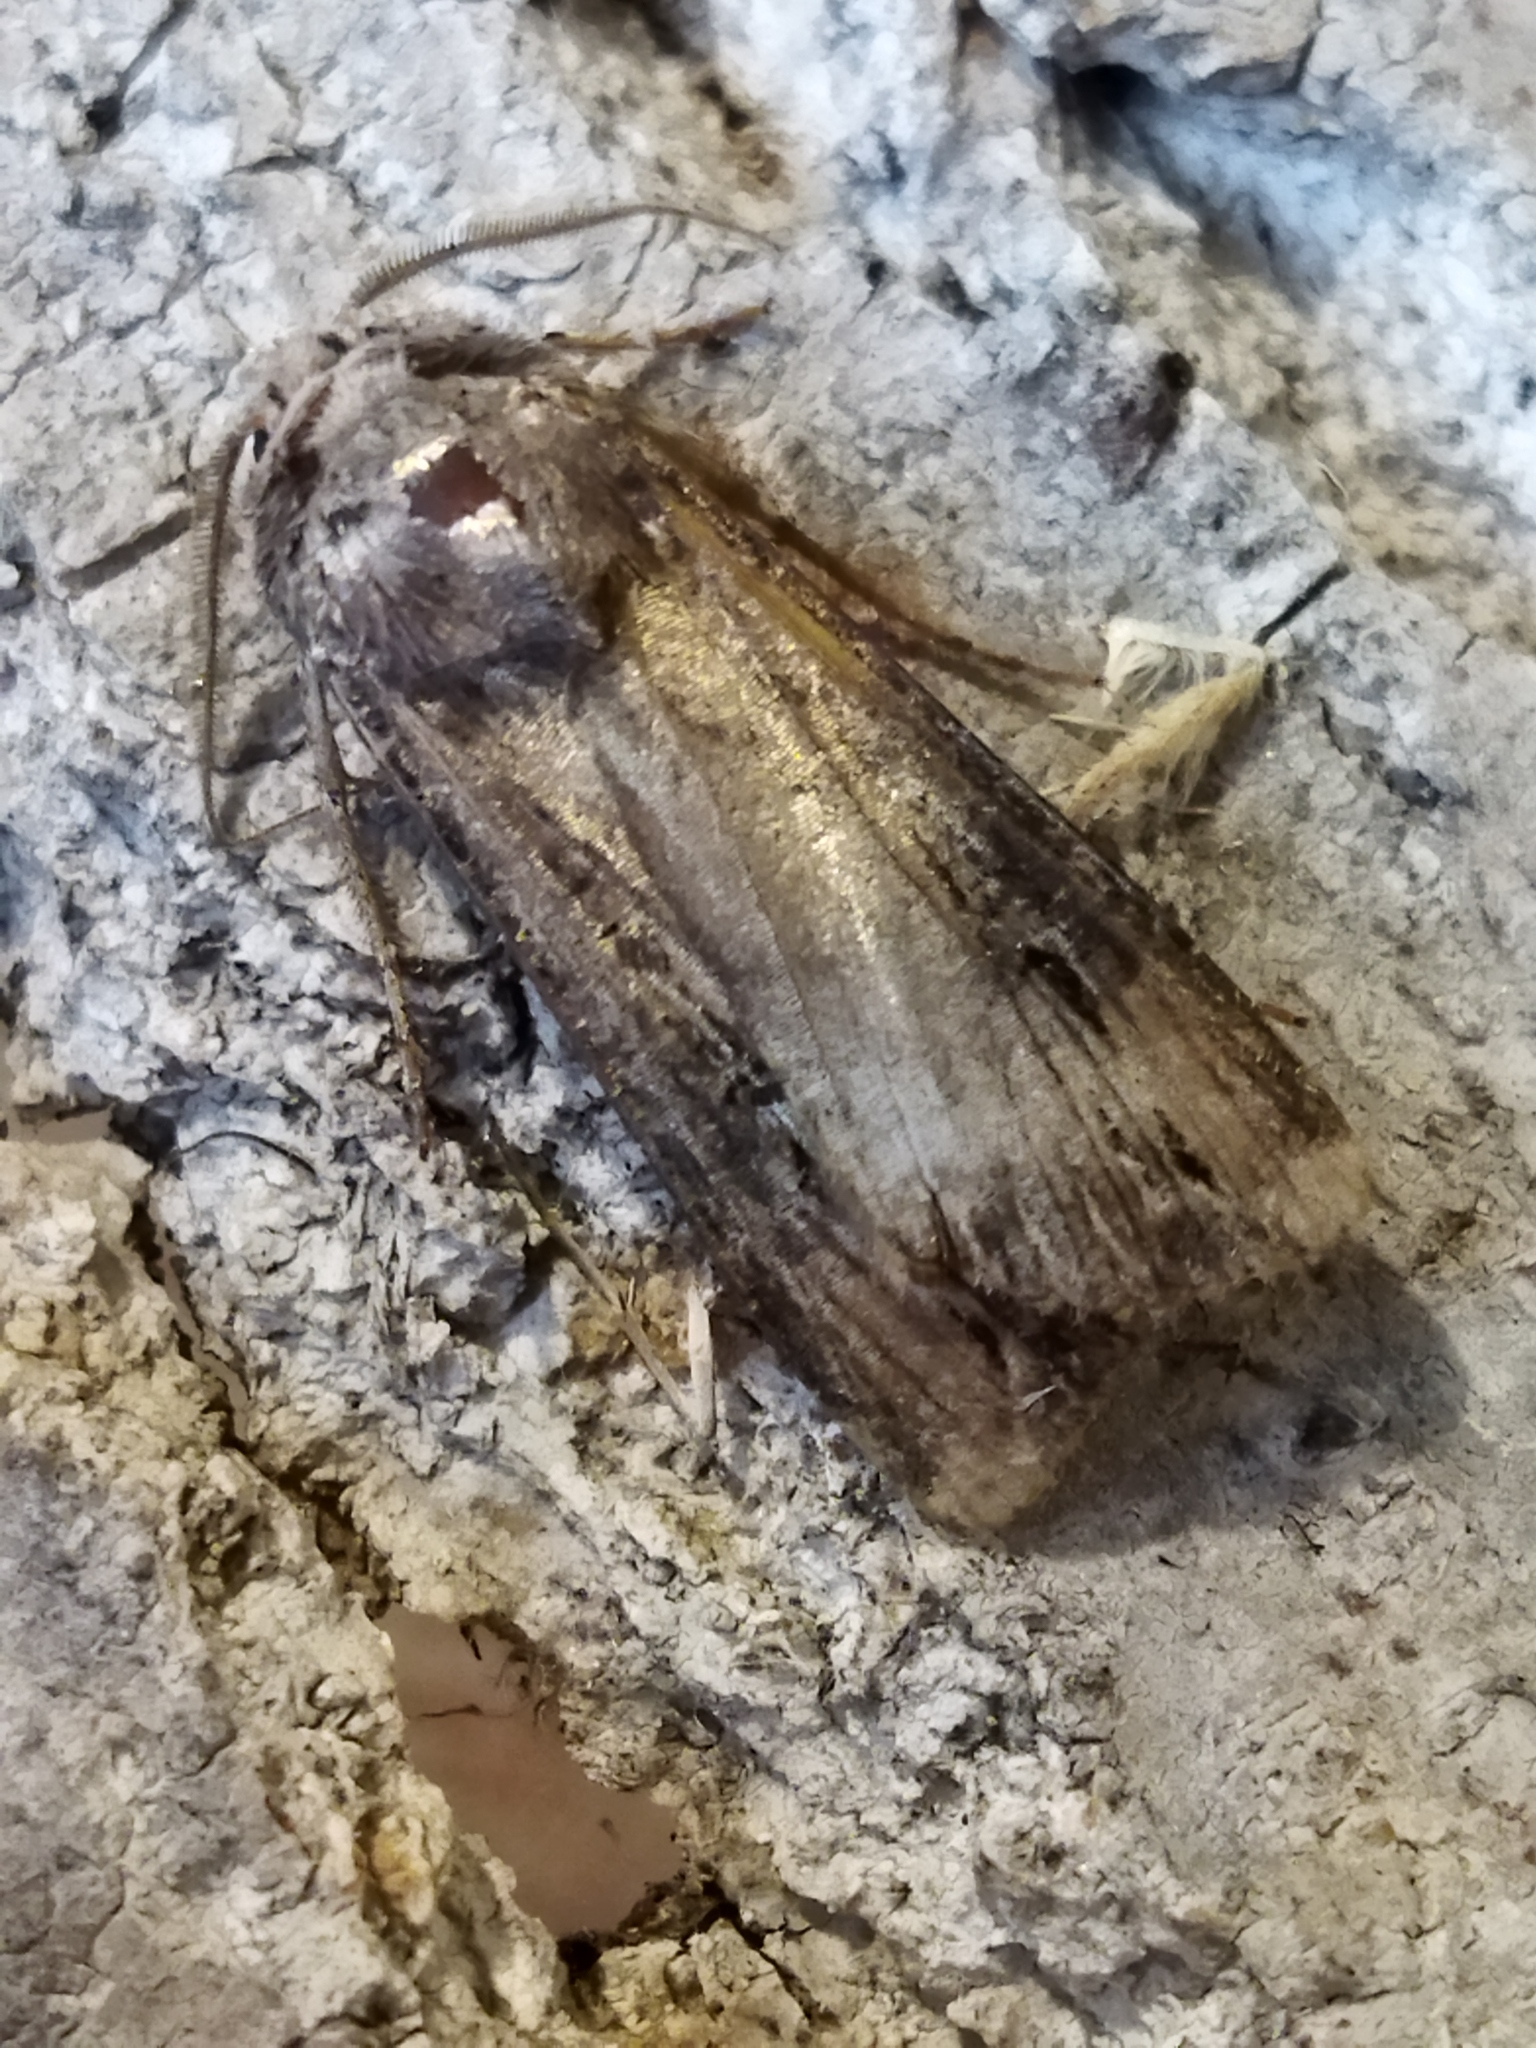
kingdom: Animalia
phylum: Arthropoda
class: Insecta
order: Lepidoptera
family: Noctuidae
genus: Agrotis
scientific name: Agrotis ipsilon
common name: Dark sword-grass
